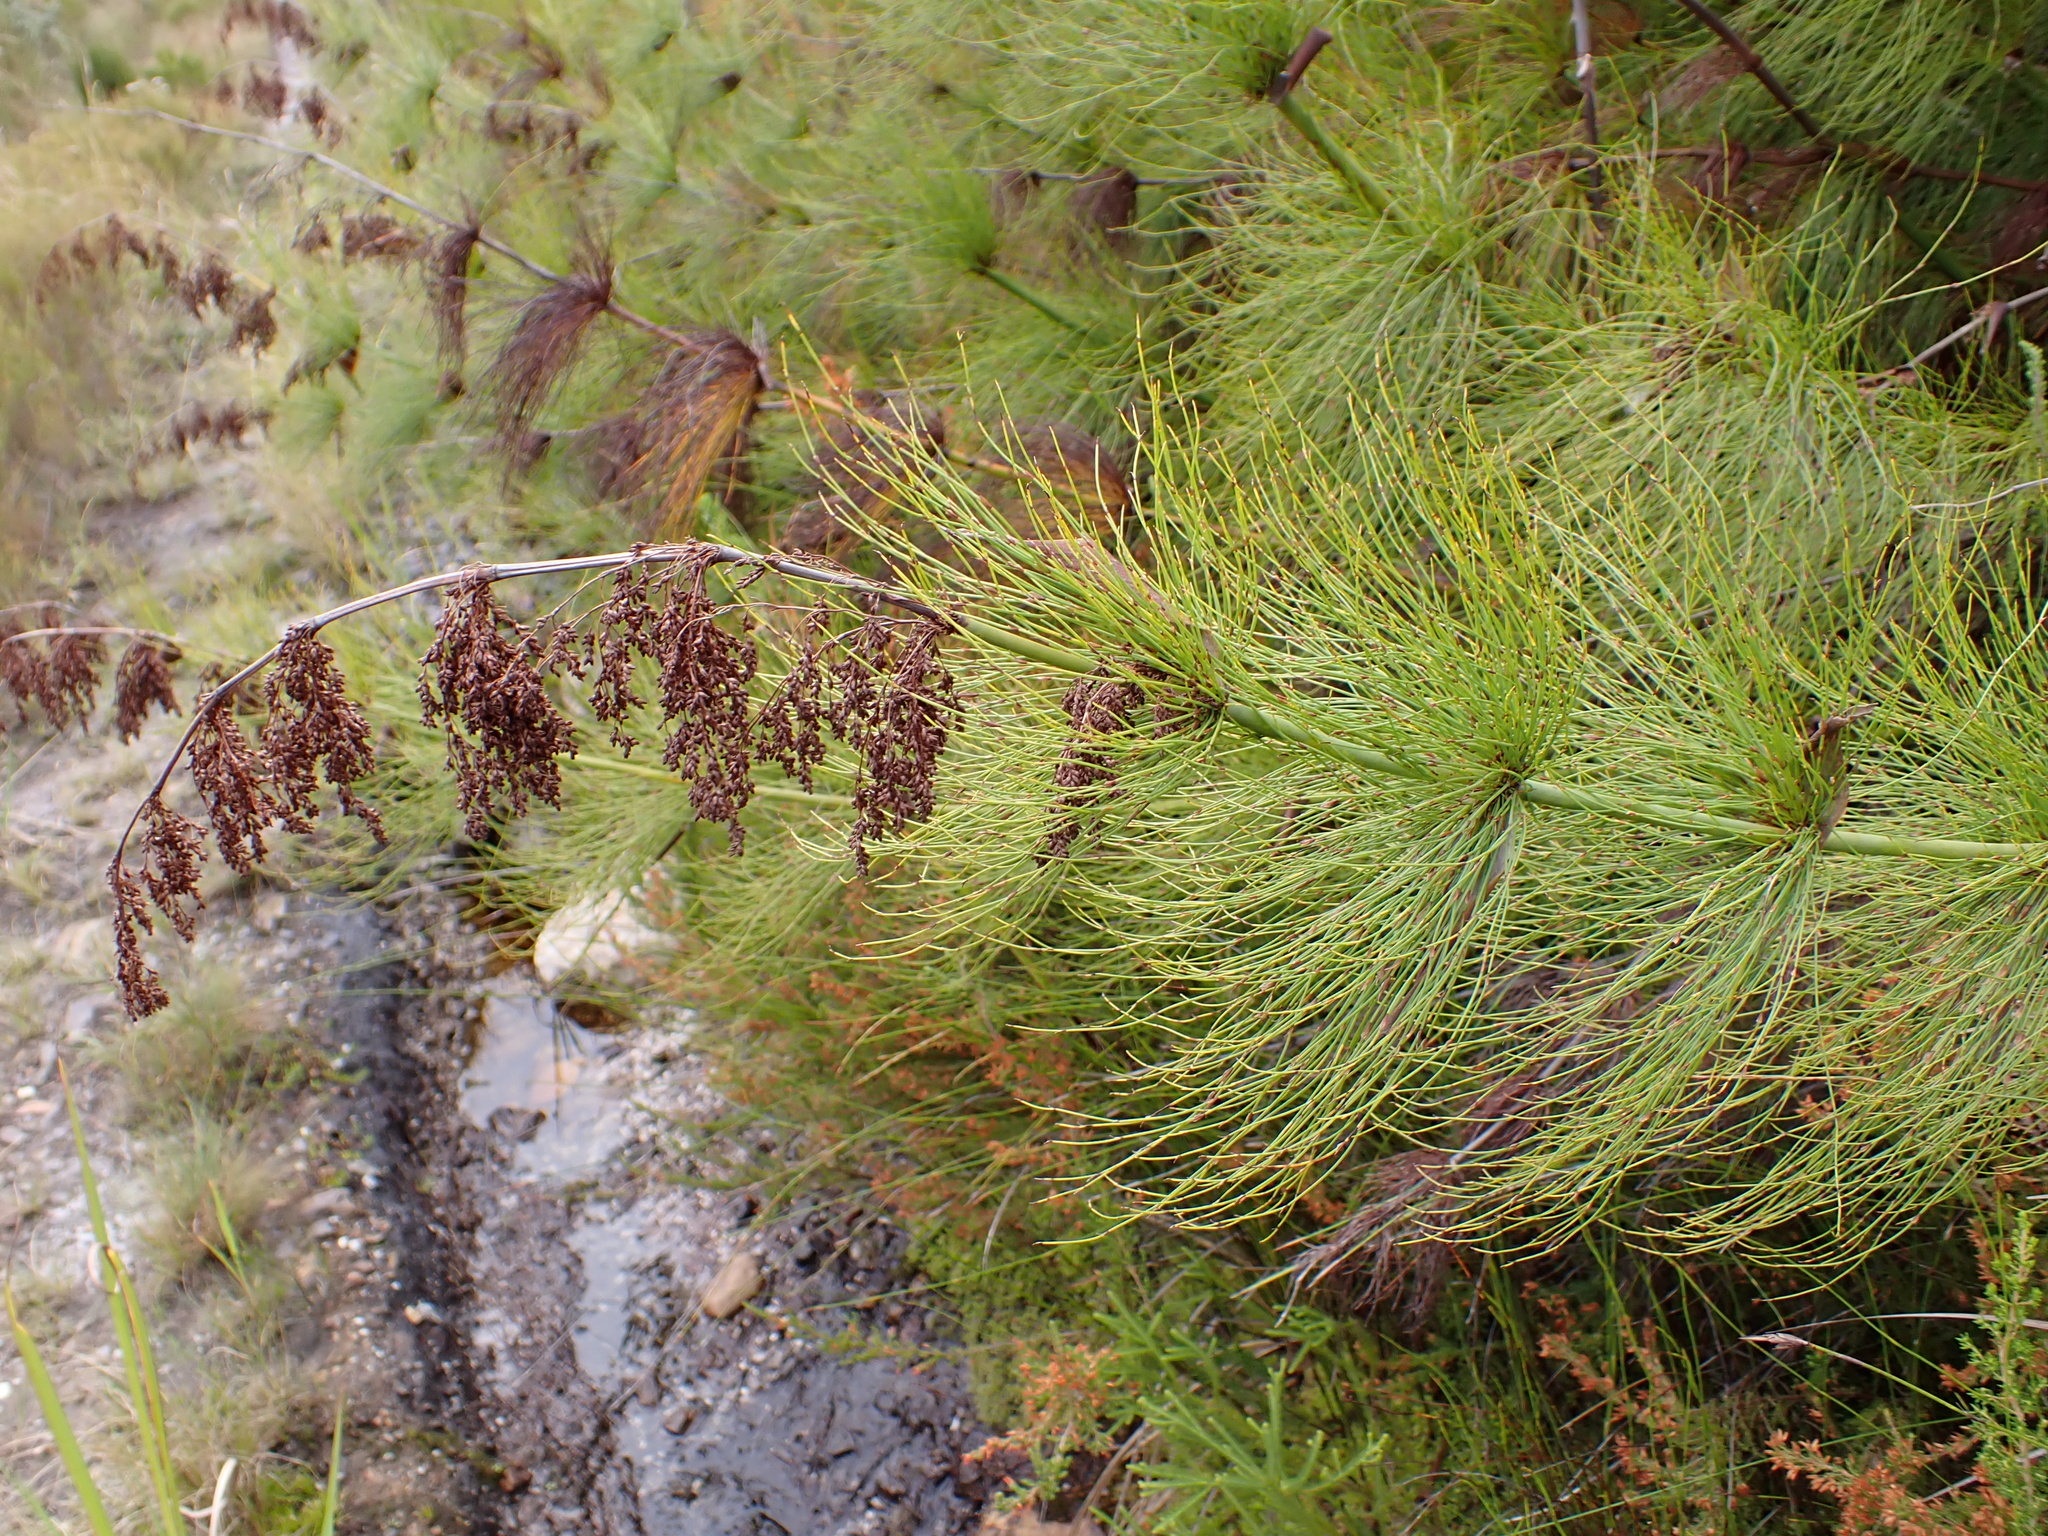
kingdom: Plantae
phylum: Tracheophyta
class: Liliopsida
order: Poales
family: Restionaceae
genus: Elegia
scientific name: Elegia capensis
